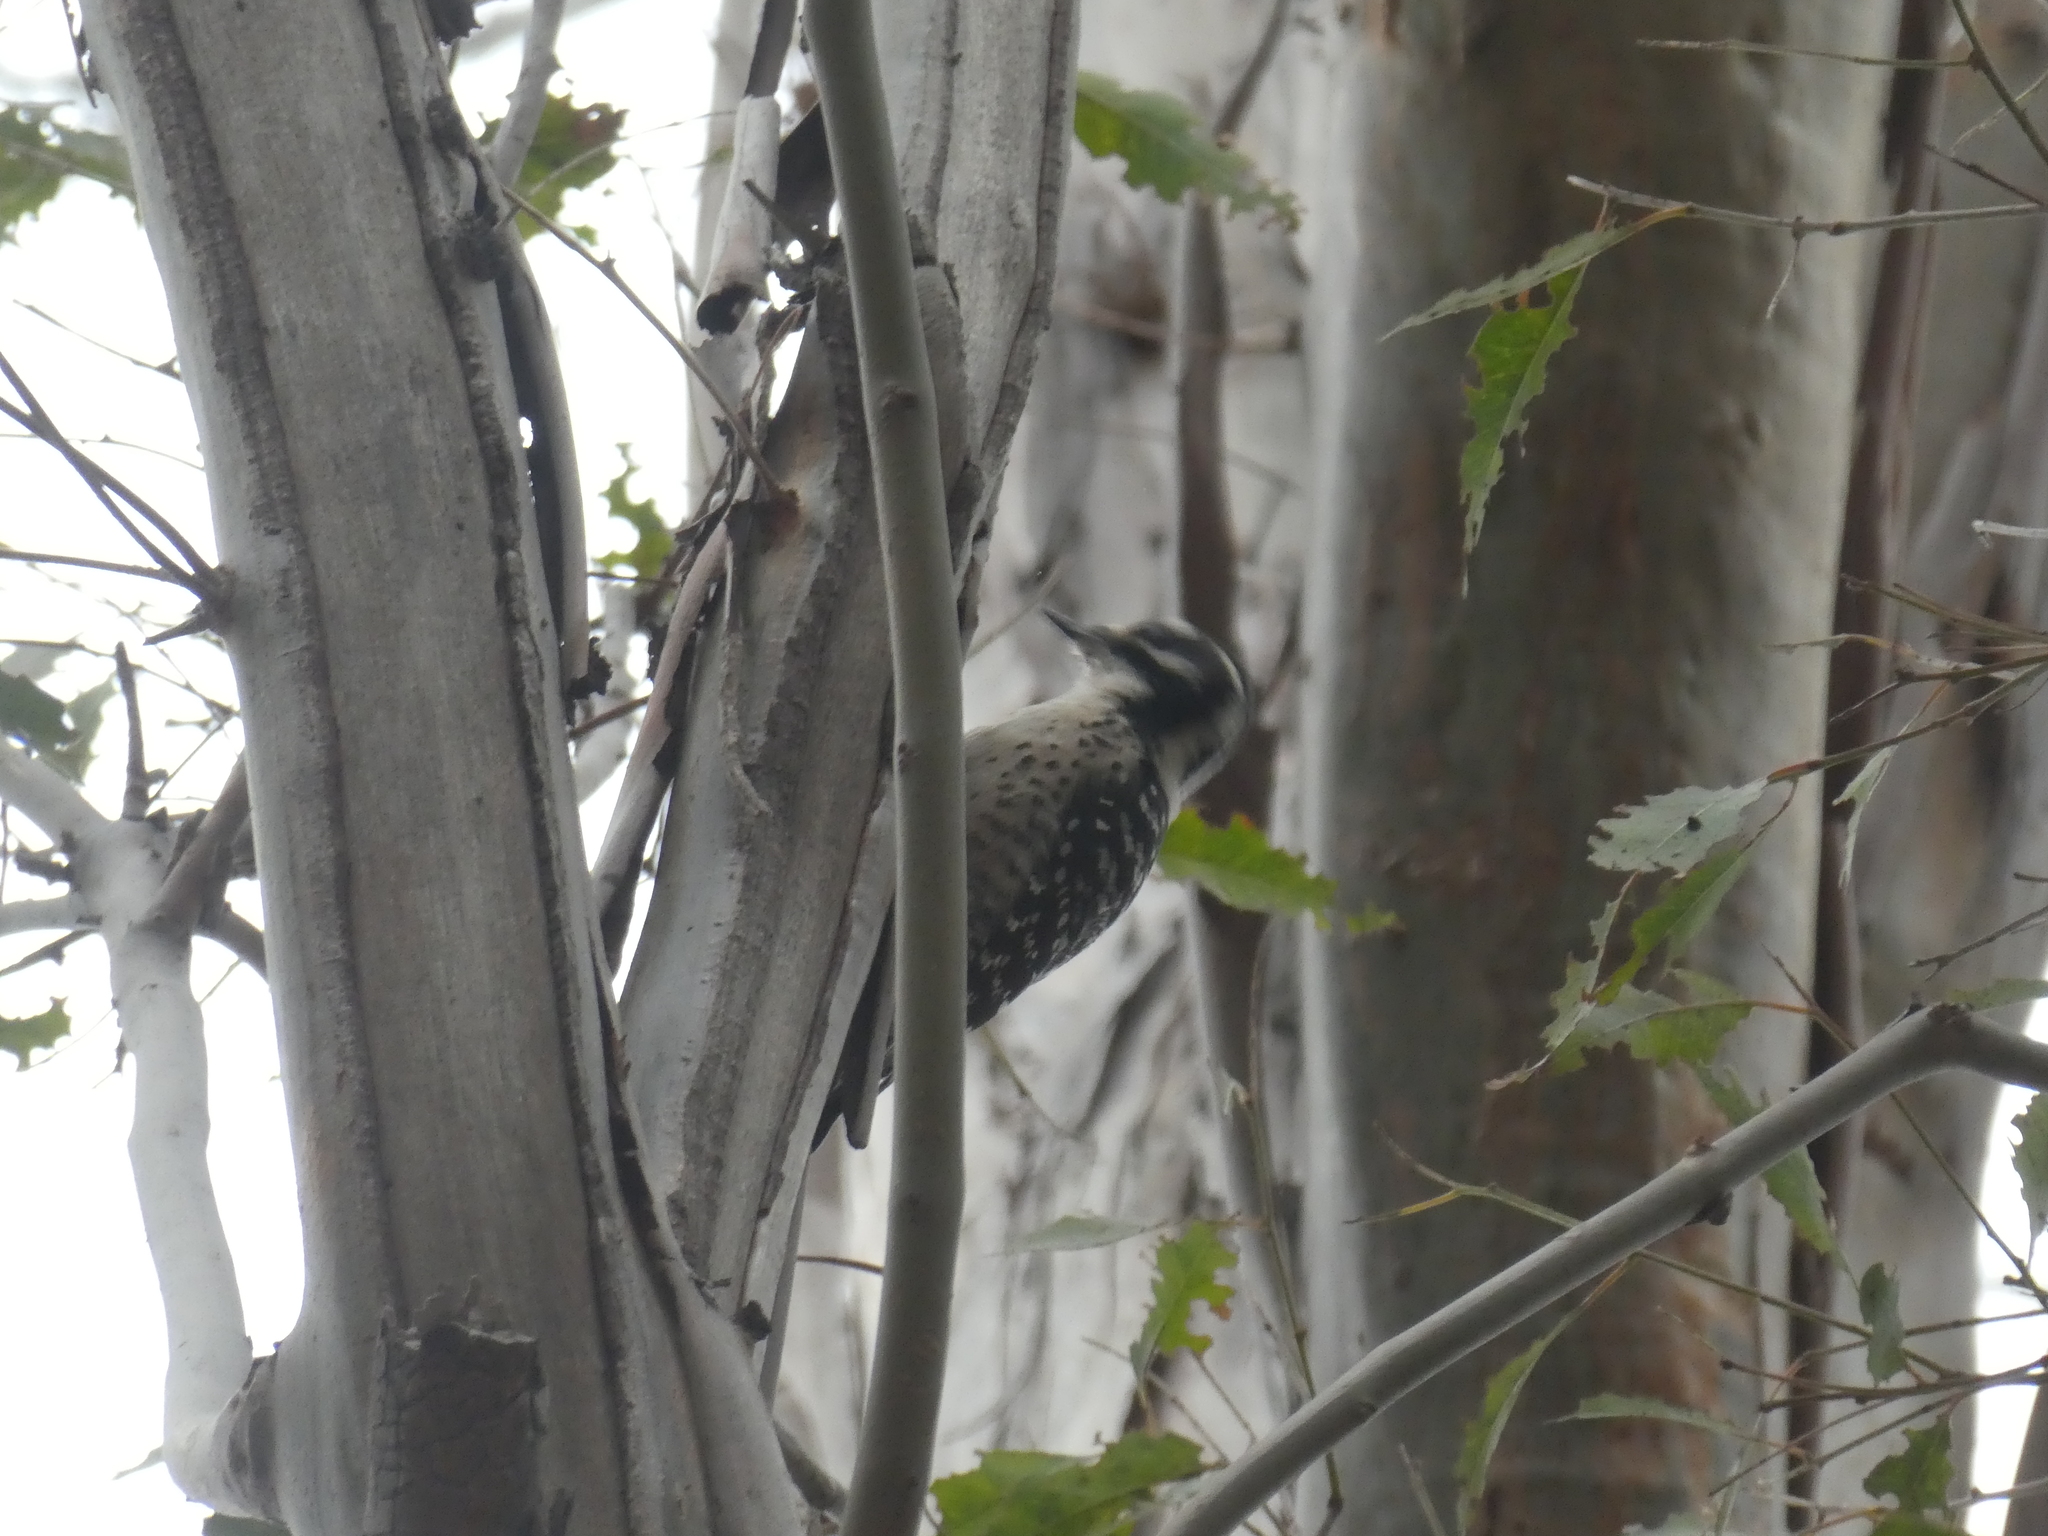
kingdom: Animalia
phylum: Chordata
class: Aves
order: Piciformes
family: Picidae
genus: Dryobates
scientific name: Dryobates nuttallii
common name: Nuttall's woodpecker
